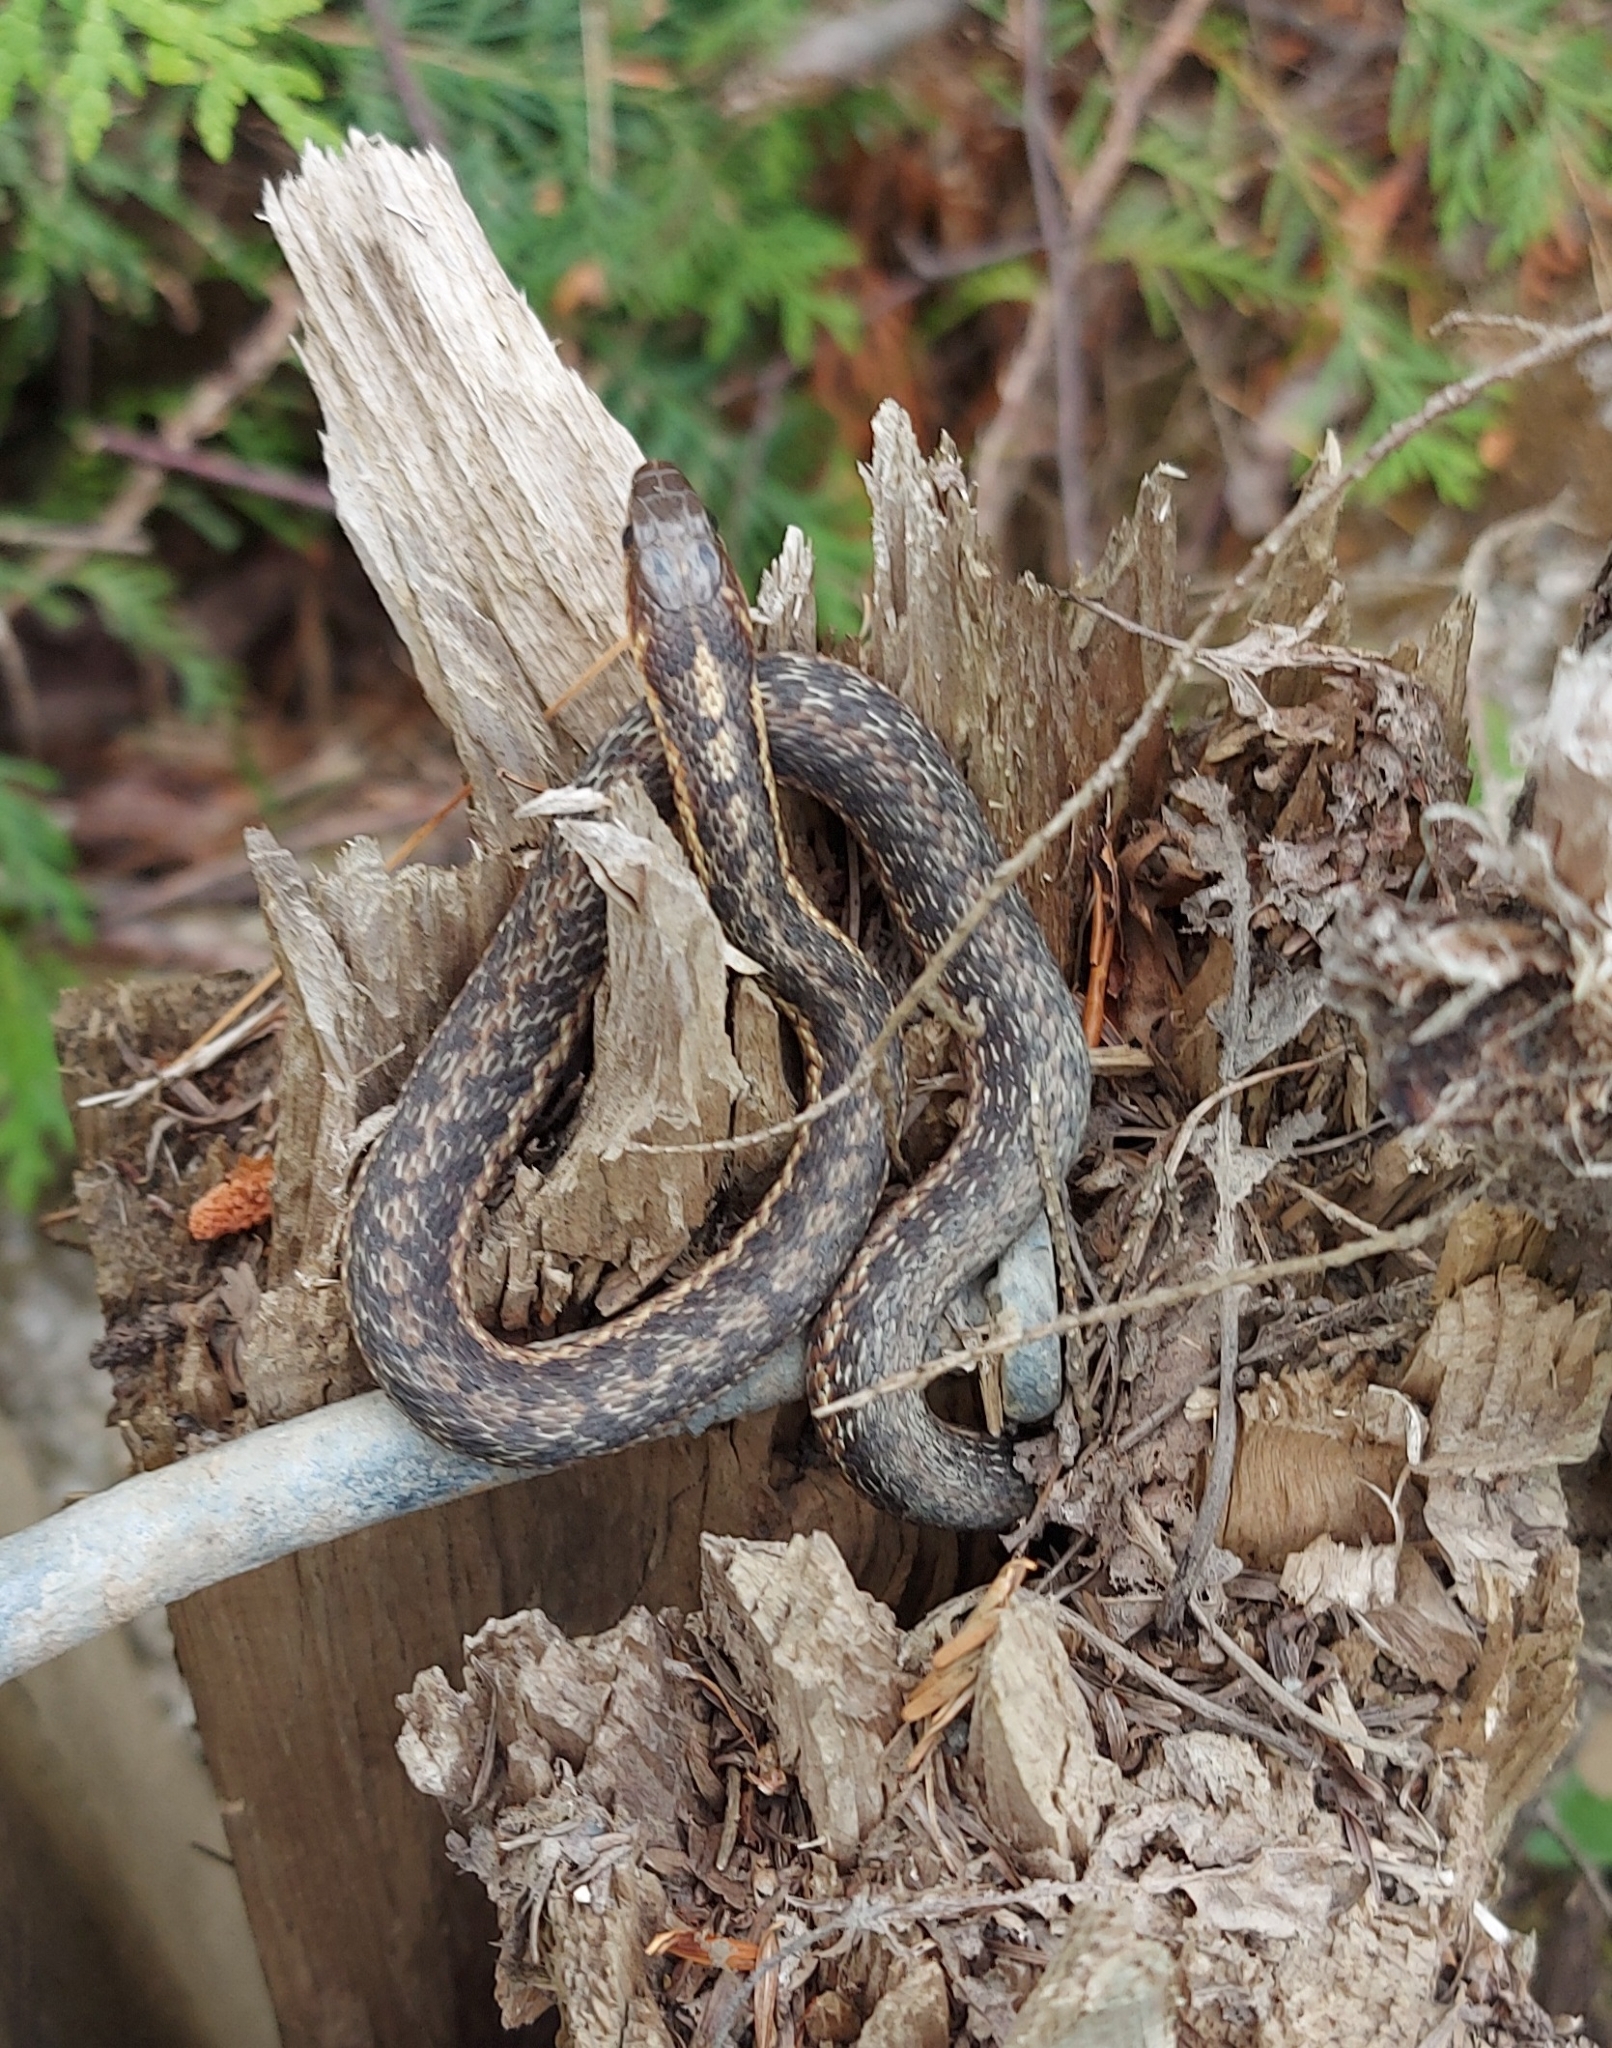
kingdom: Animalia
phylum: Chordata
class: Squamata
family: Colubridae
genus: Thamnophis
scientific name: Thamnophis sirtalis
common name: Common garter snake
